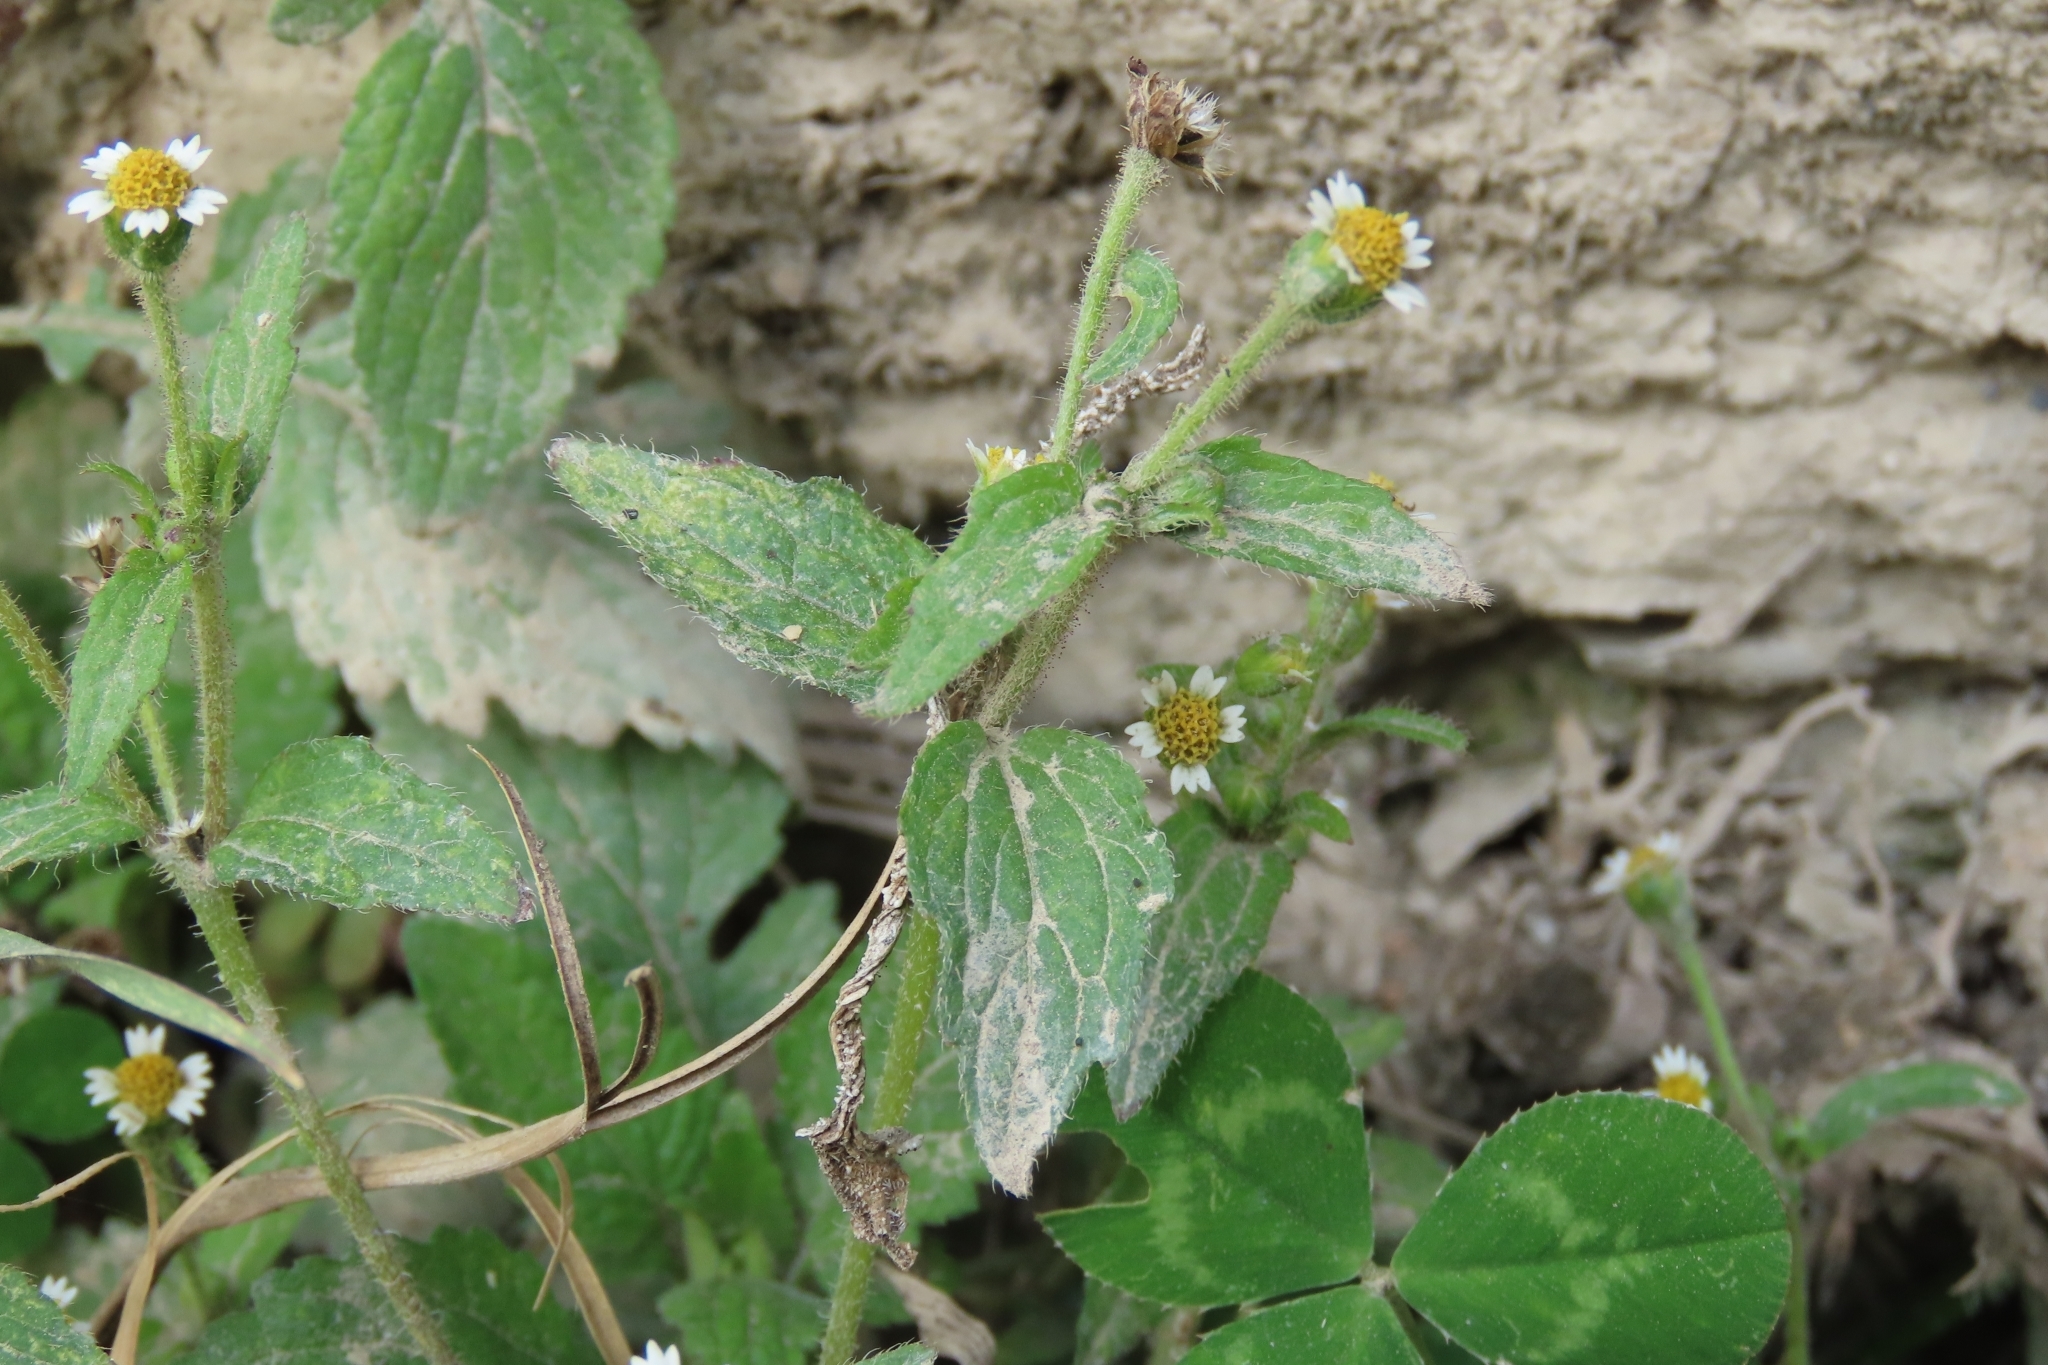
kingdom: Plantae
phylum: Tracheophyta
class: Magnoliopsida
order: Asterales
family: Asteraceae
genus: Galinsoga
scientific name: Galinsoga quadriradiata
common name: Shaggy soldier
